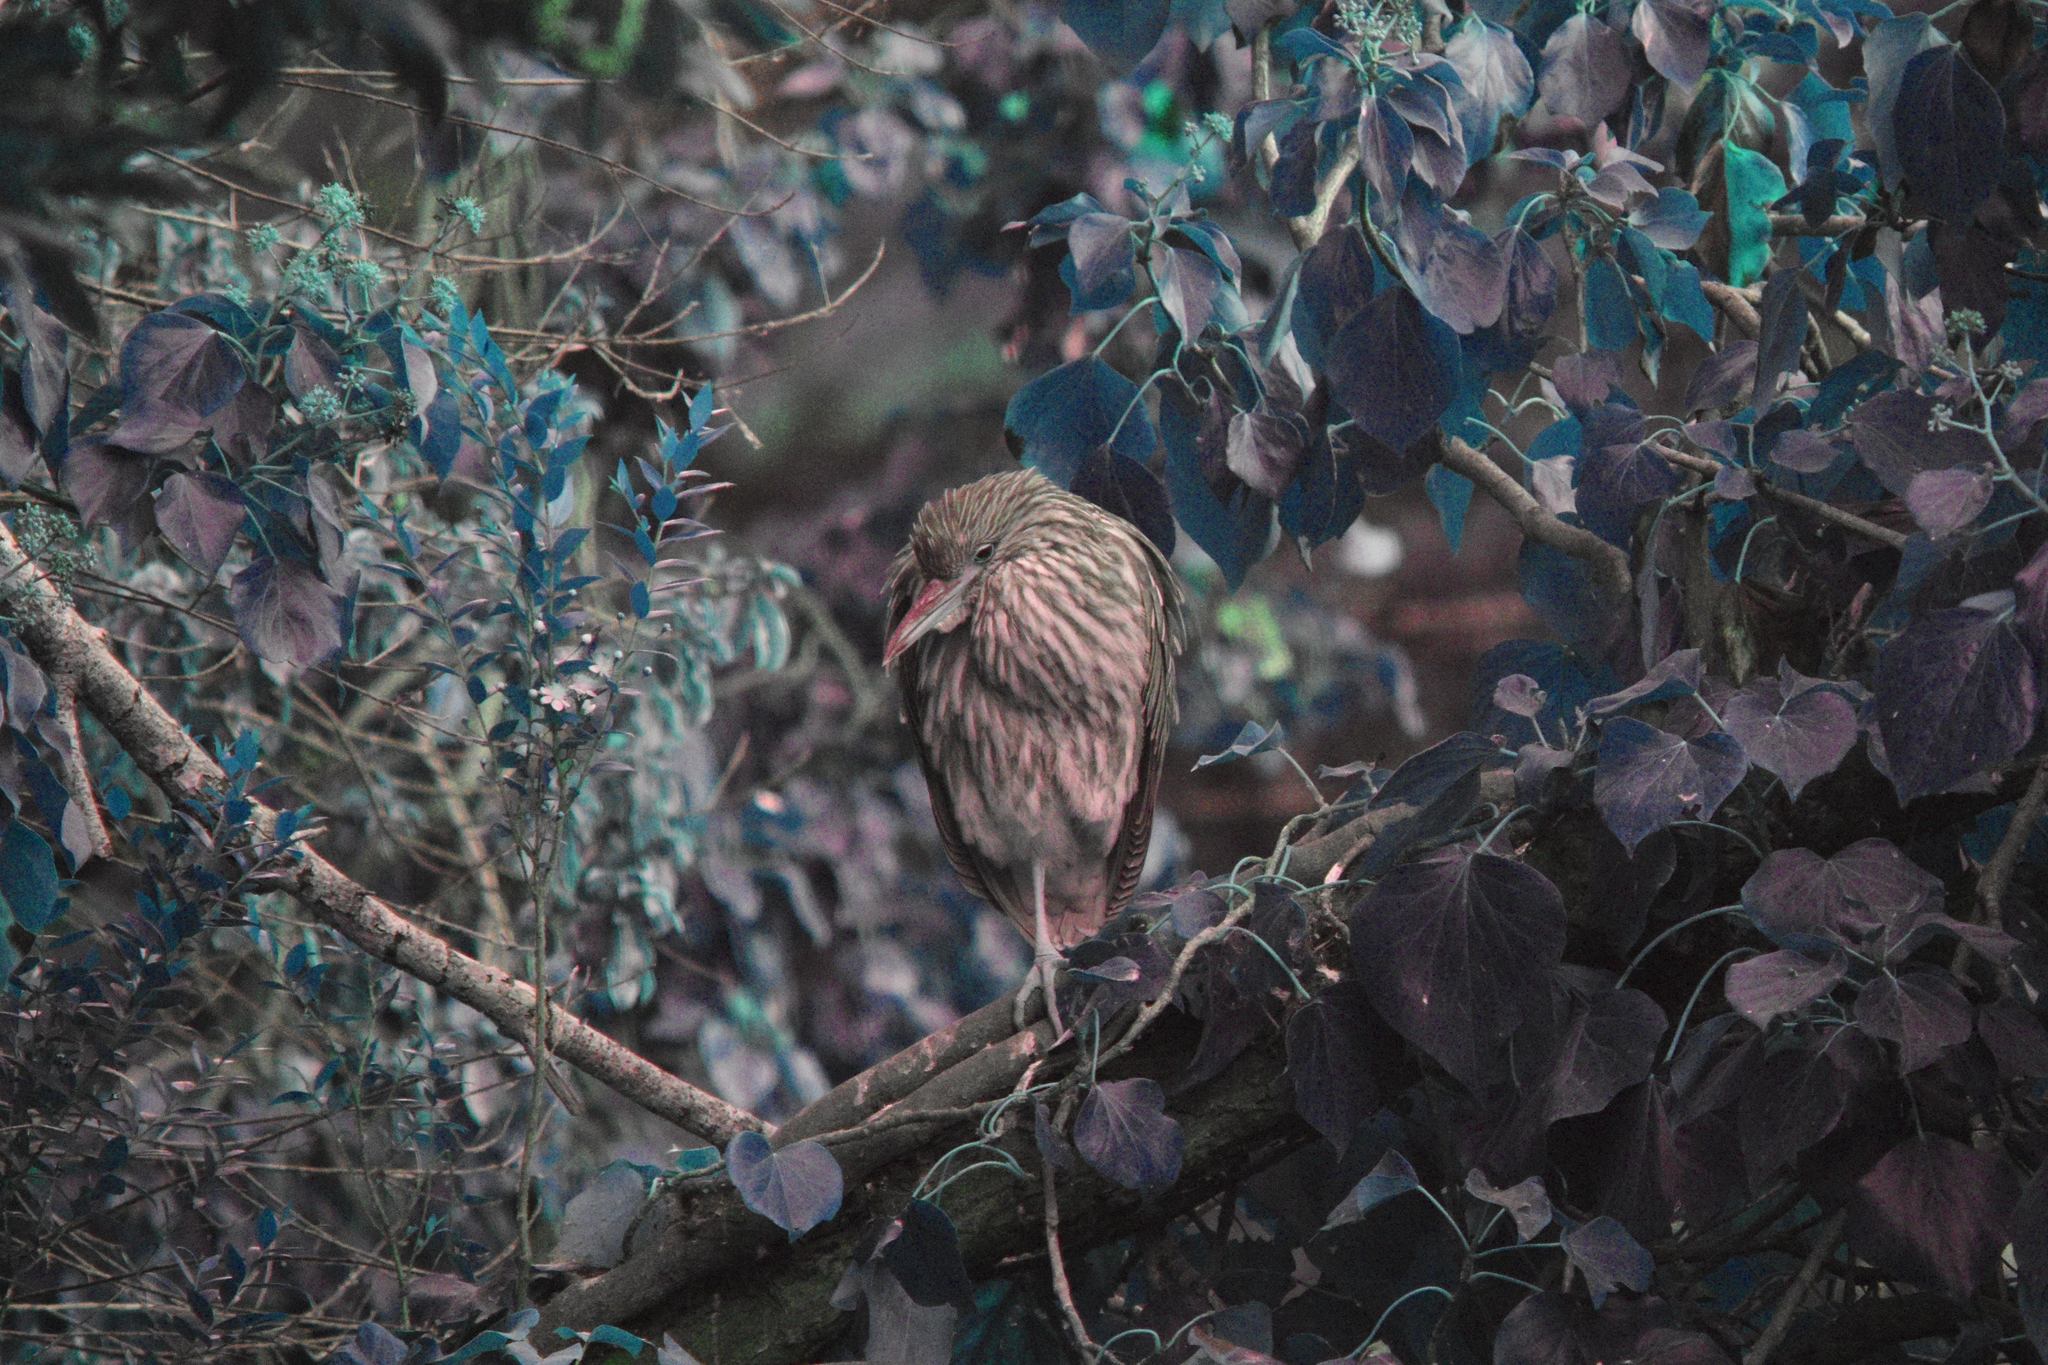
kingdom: Animalia
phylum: Chordata
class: Aves
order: Pelecaniformes
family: Ardeidae
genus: Nycticorax
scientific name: Nycticorax nycticorax
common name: Black-crowned night heron
